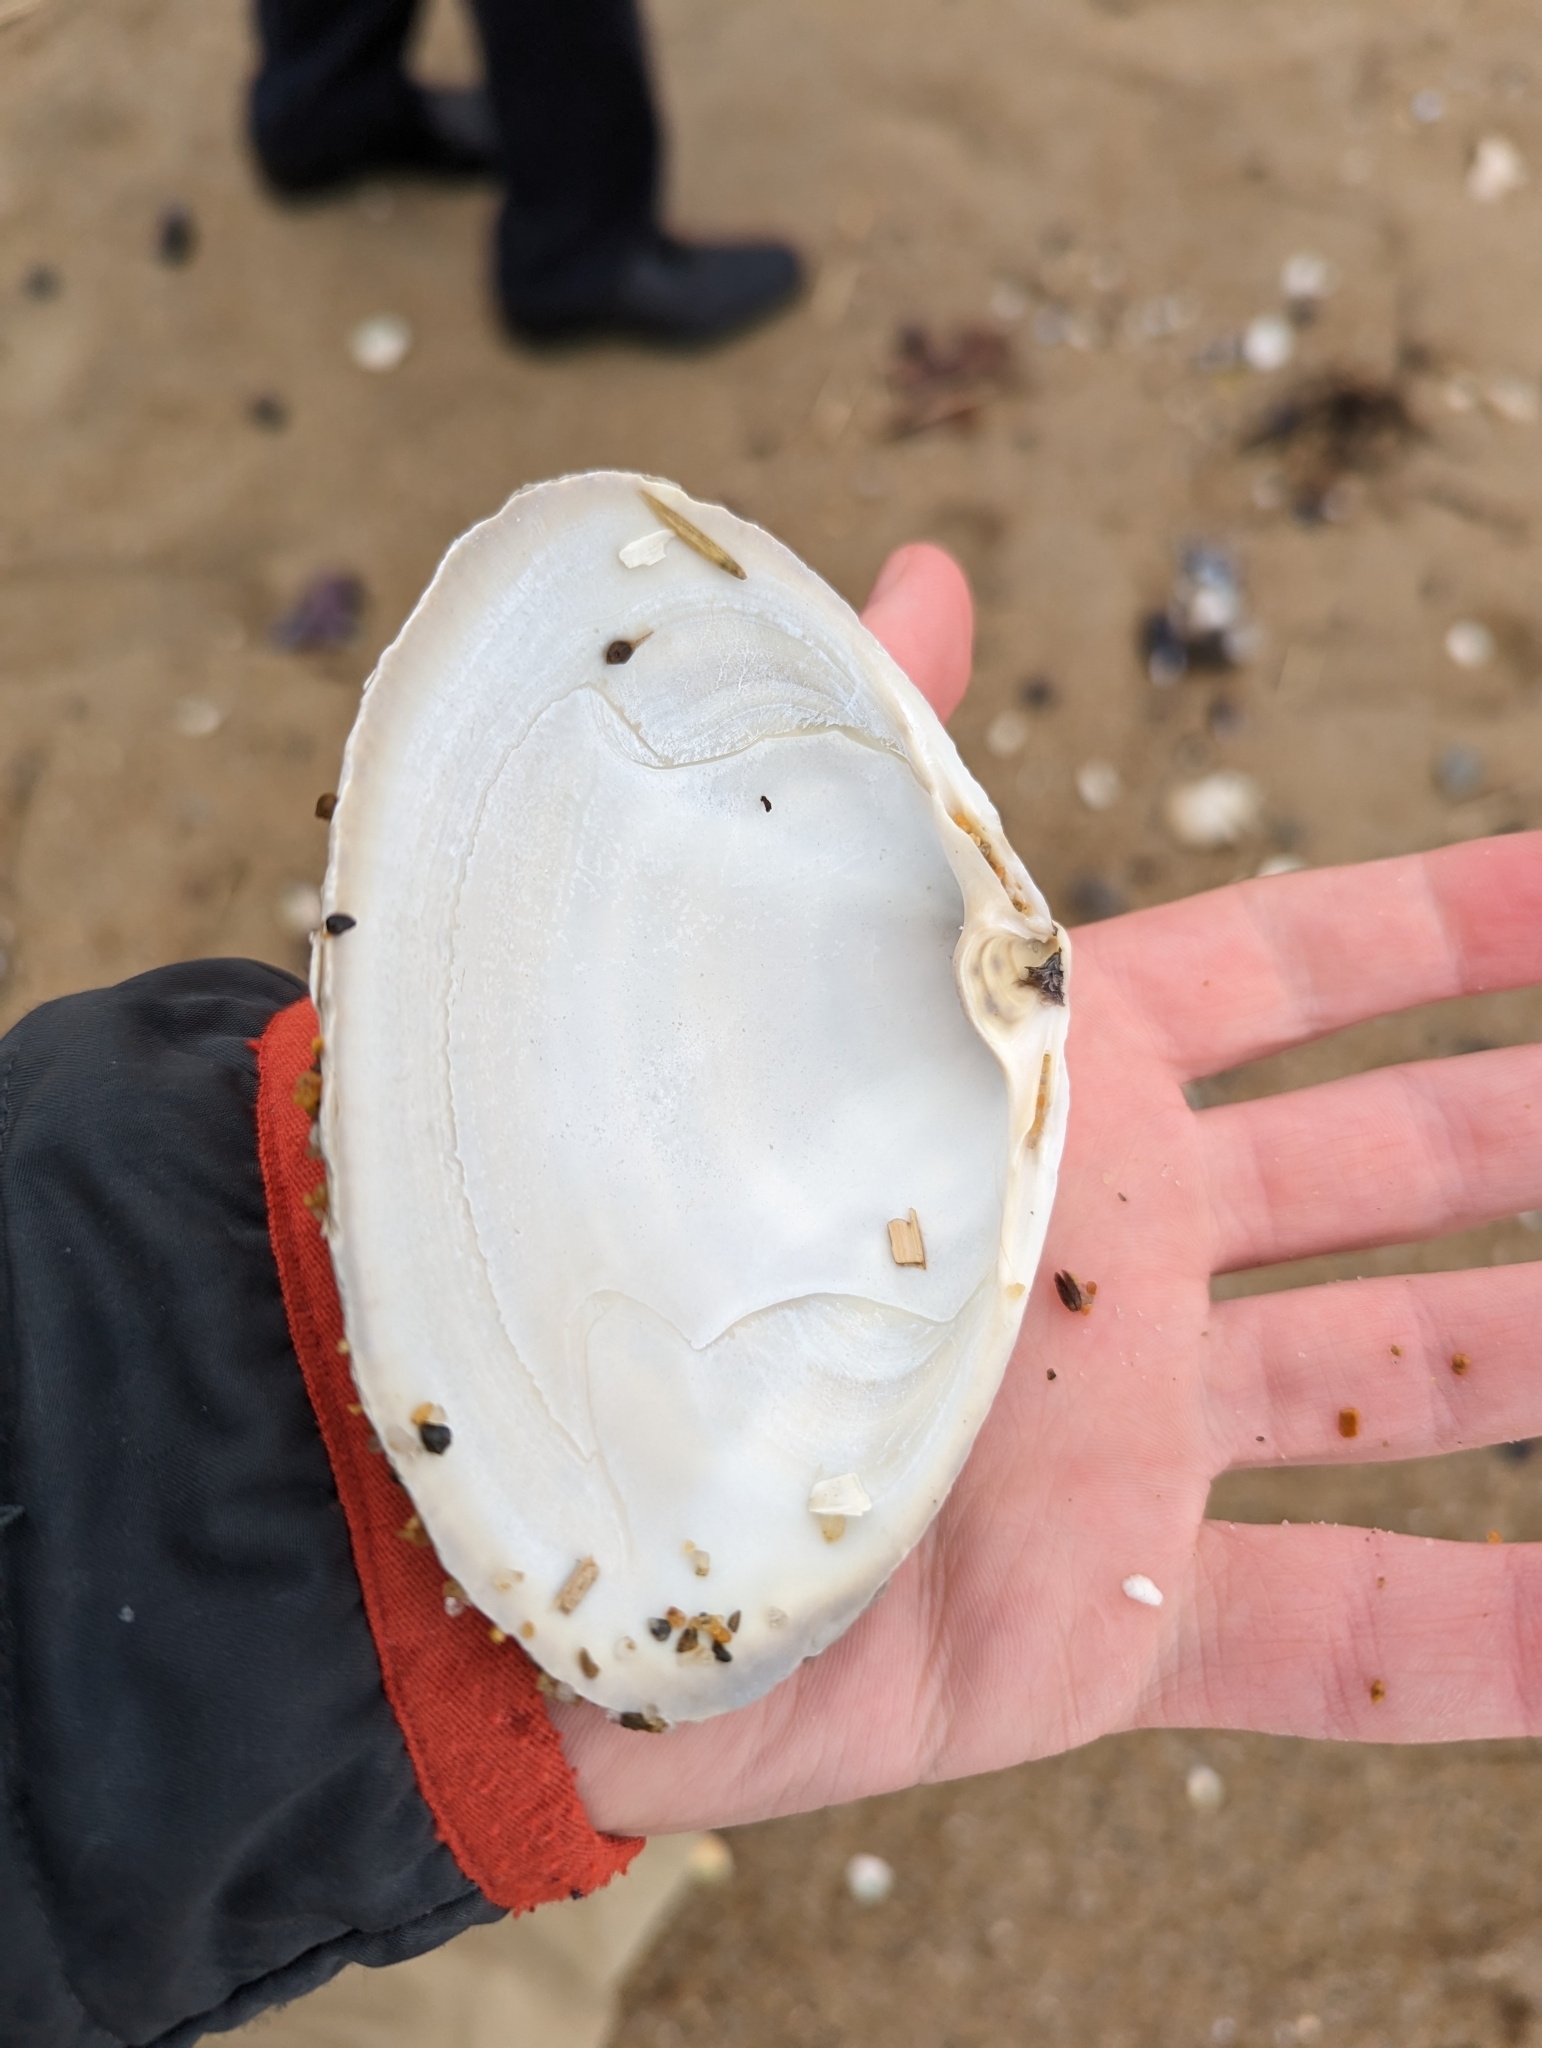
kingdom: Animalia
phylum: Mollusca
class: Bivalvia
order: Venerida
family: Mactridae
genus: Spisula
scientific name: Spisula solidissima
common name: Atlantic surf clam
